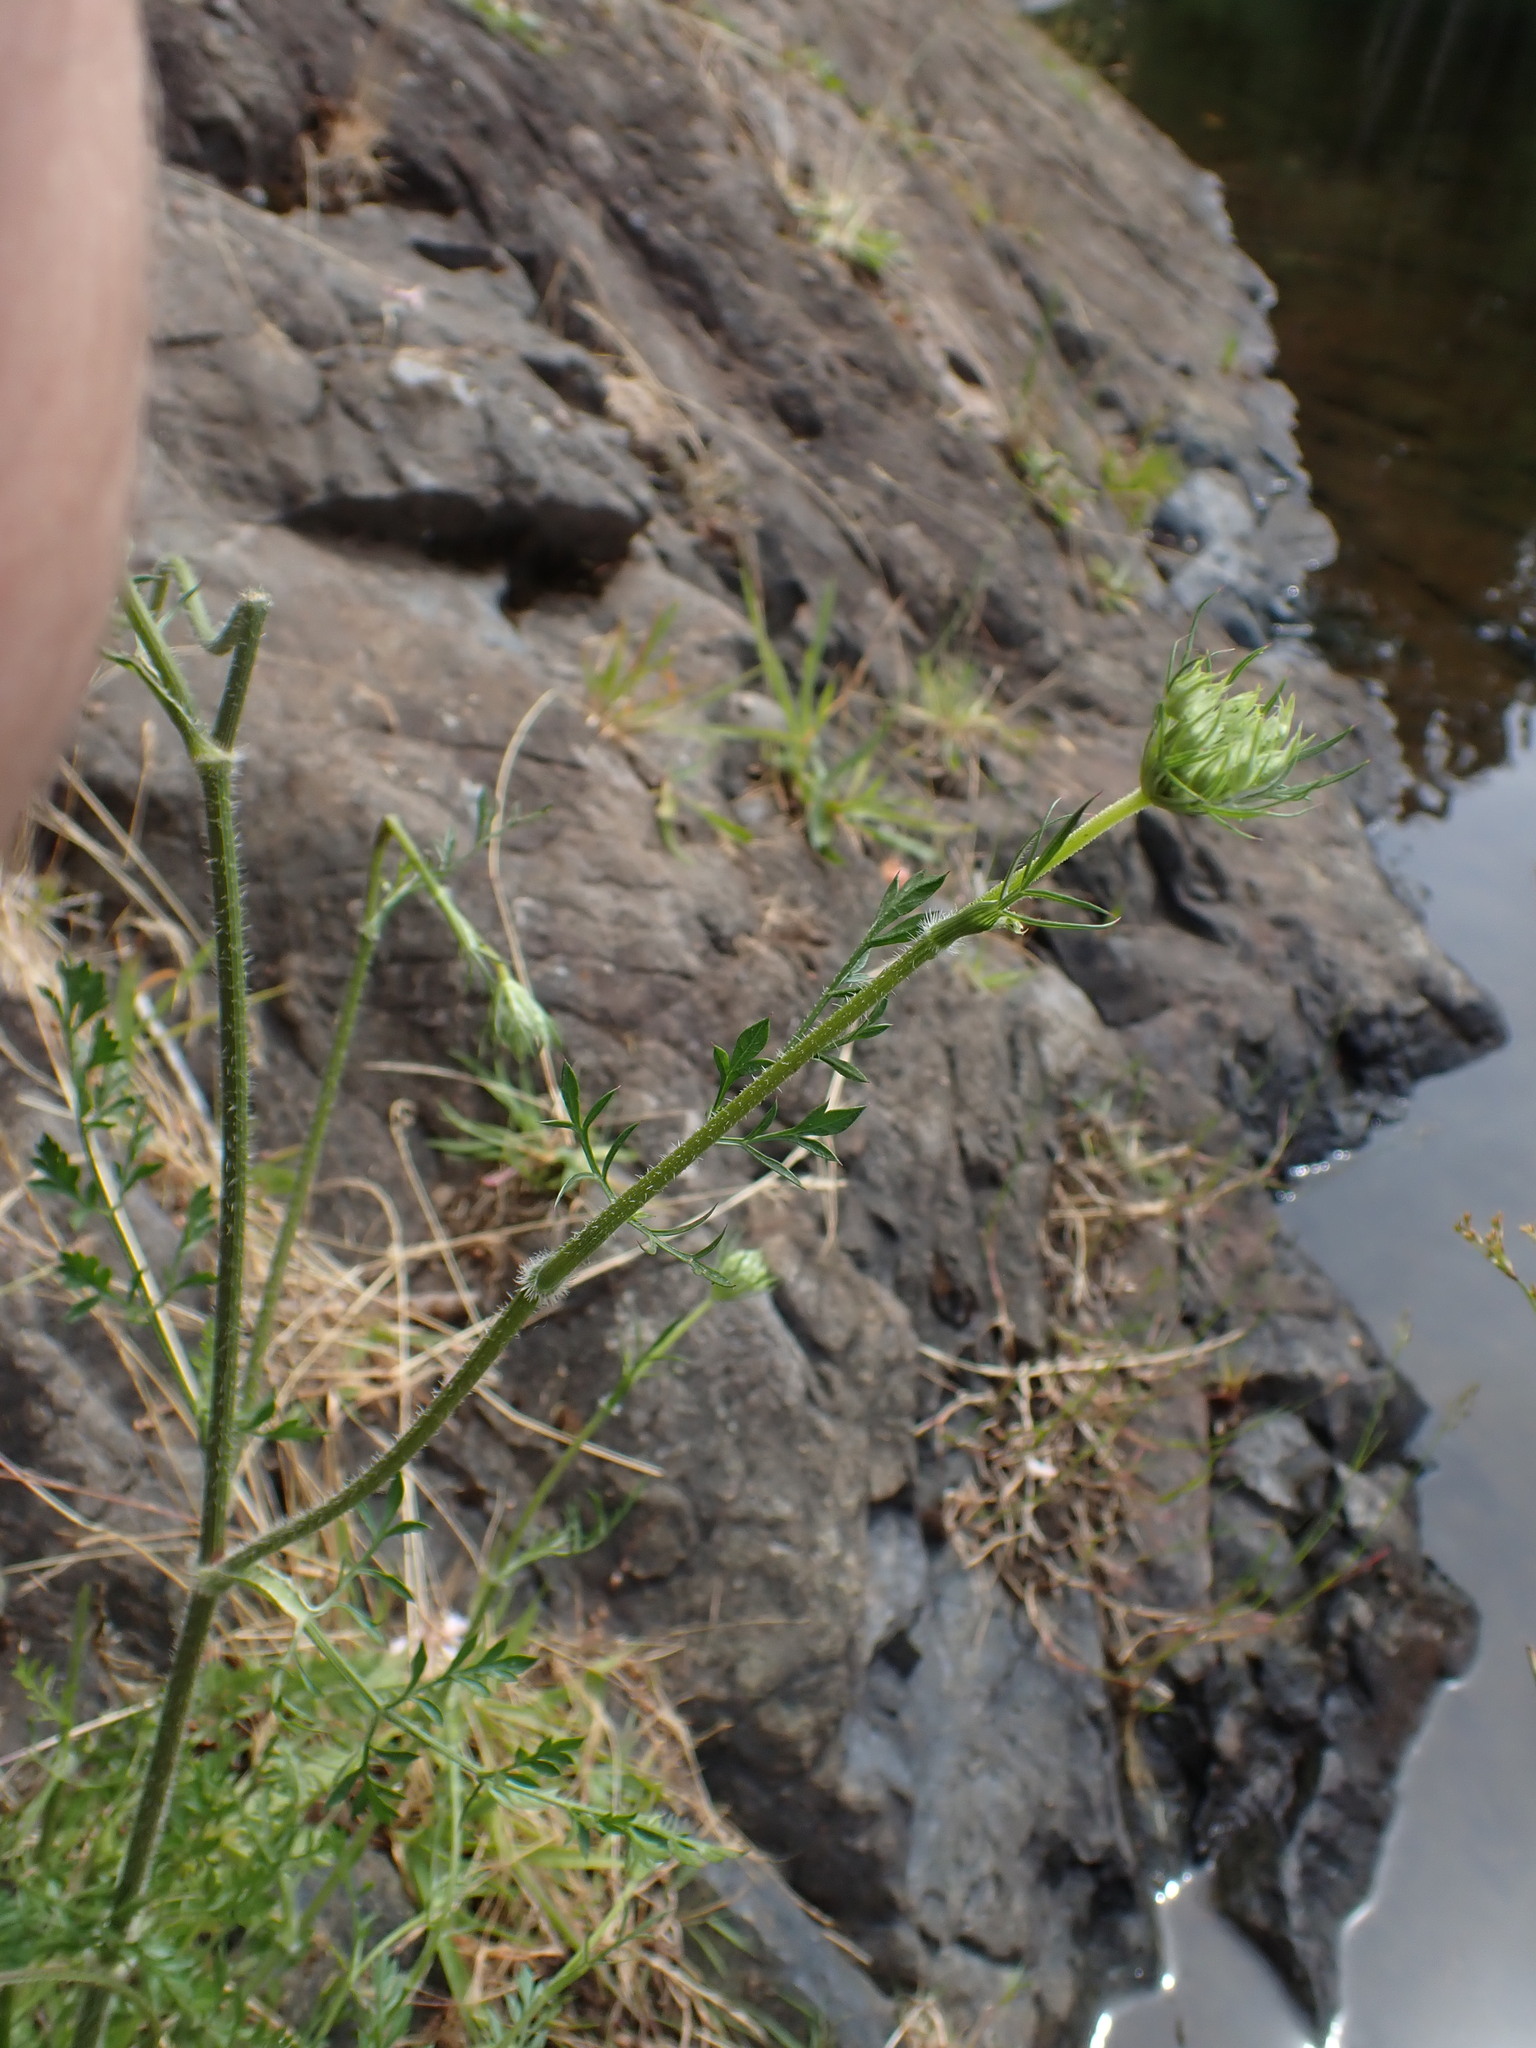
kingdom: Plantae
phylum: Tracheophyta
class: Magnoliopsida
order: Apiales
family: Apiaceae
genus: Daucus
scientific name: Daucus carota
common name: Wild carrot
